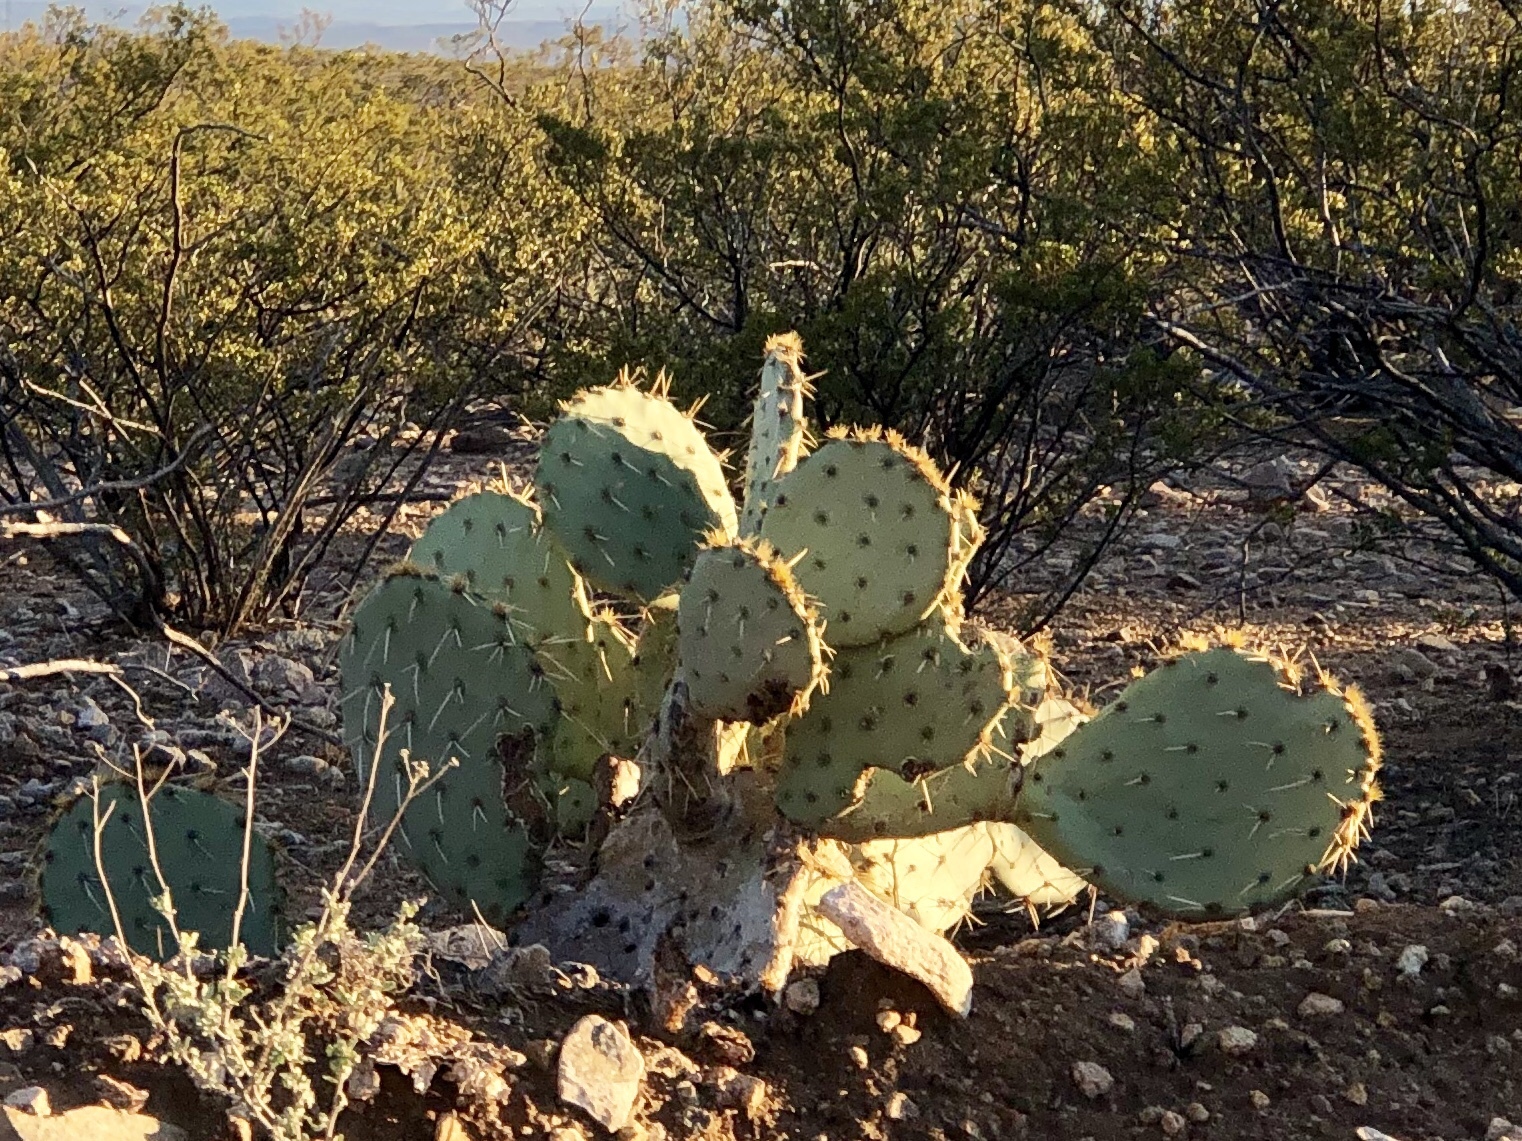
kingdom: Plantae
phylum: Tracheophyta
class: Magnoliopsida
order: Caryophyllales
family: Cactaceae
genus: Opuntia
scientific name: Opuntia engelmannii
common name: Cactus-apple
